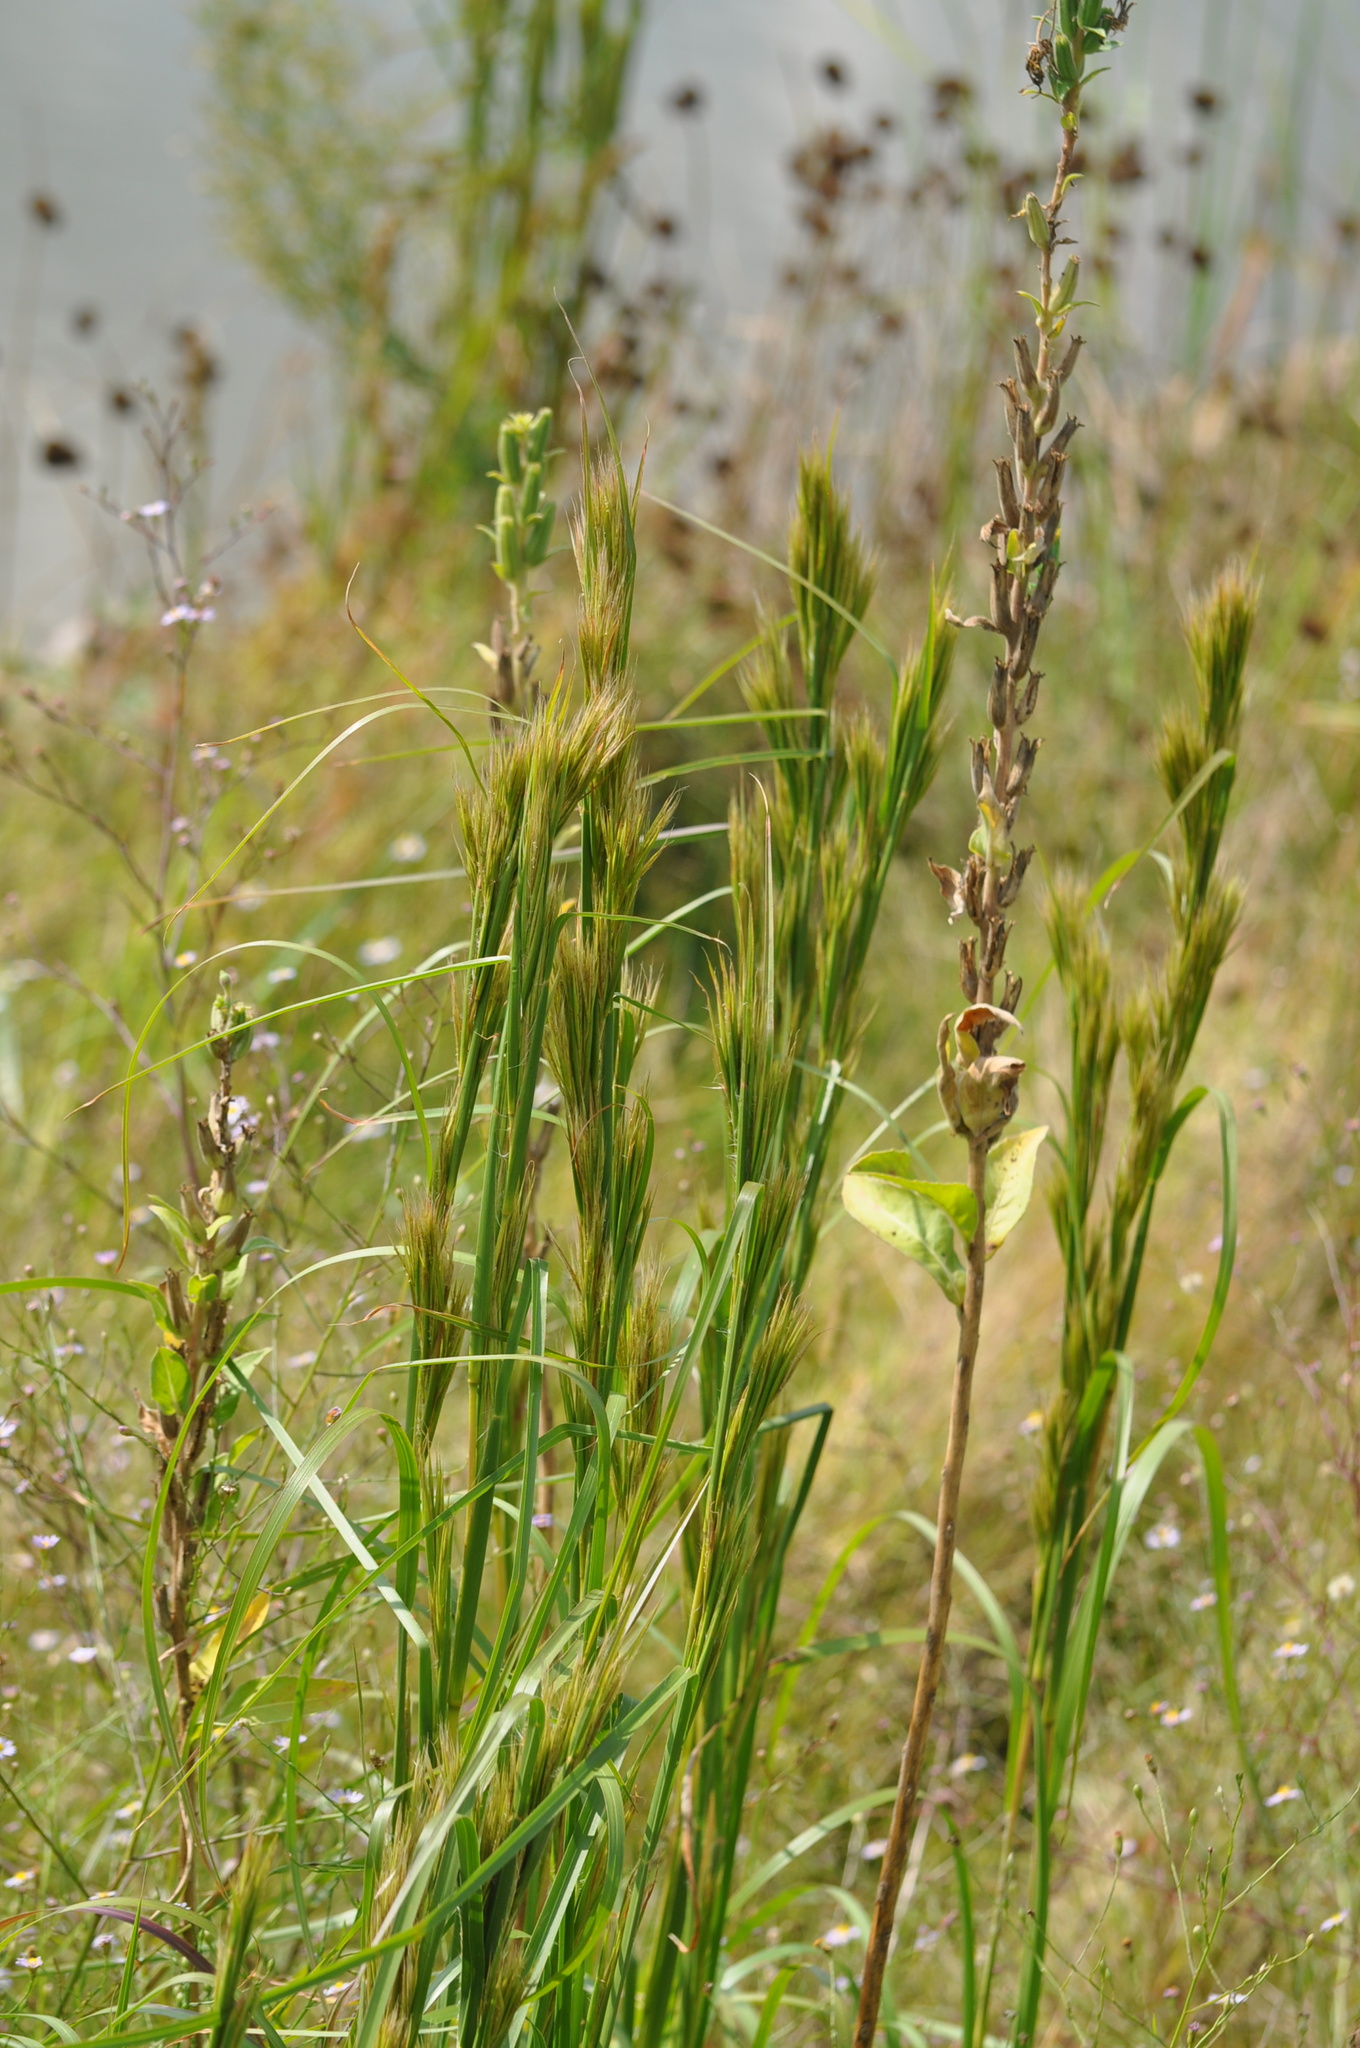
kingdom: Plantae
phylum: Tracheophyta
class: Liliopsida
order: Poales
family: Poaceae
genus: Andropogon
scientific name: Andropogon tenuispatheus
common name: Bushy bluestem
